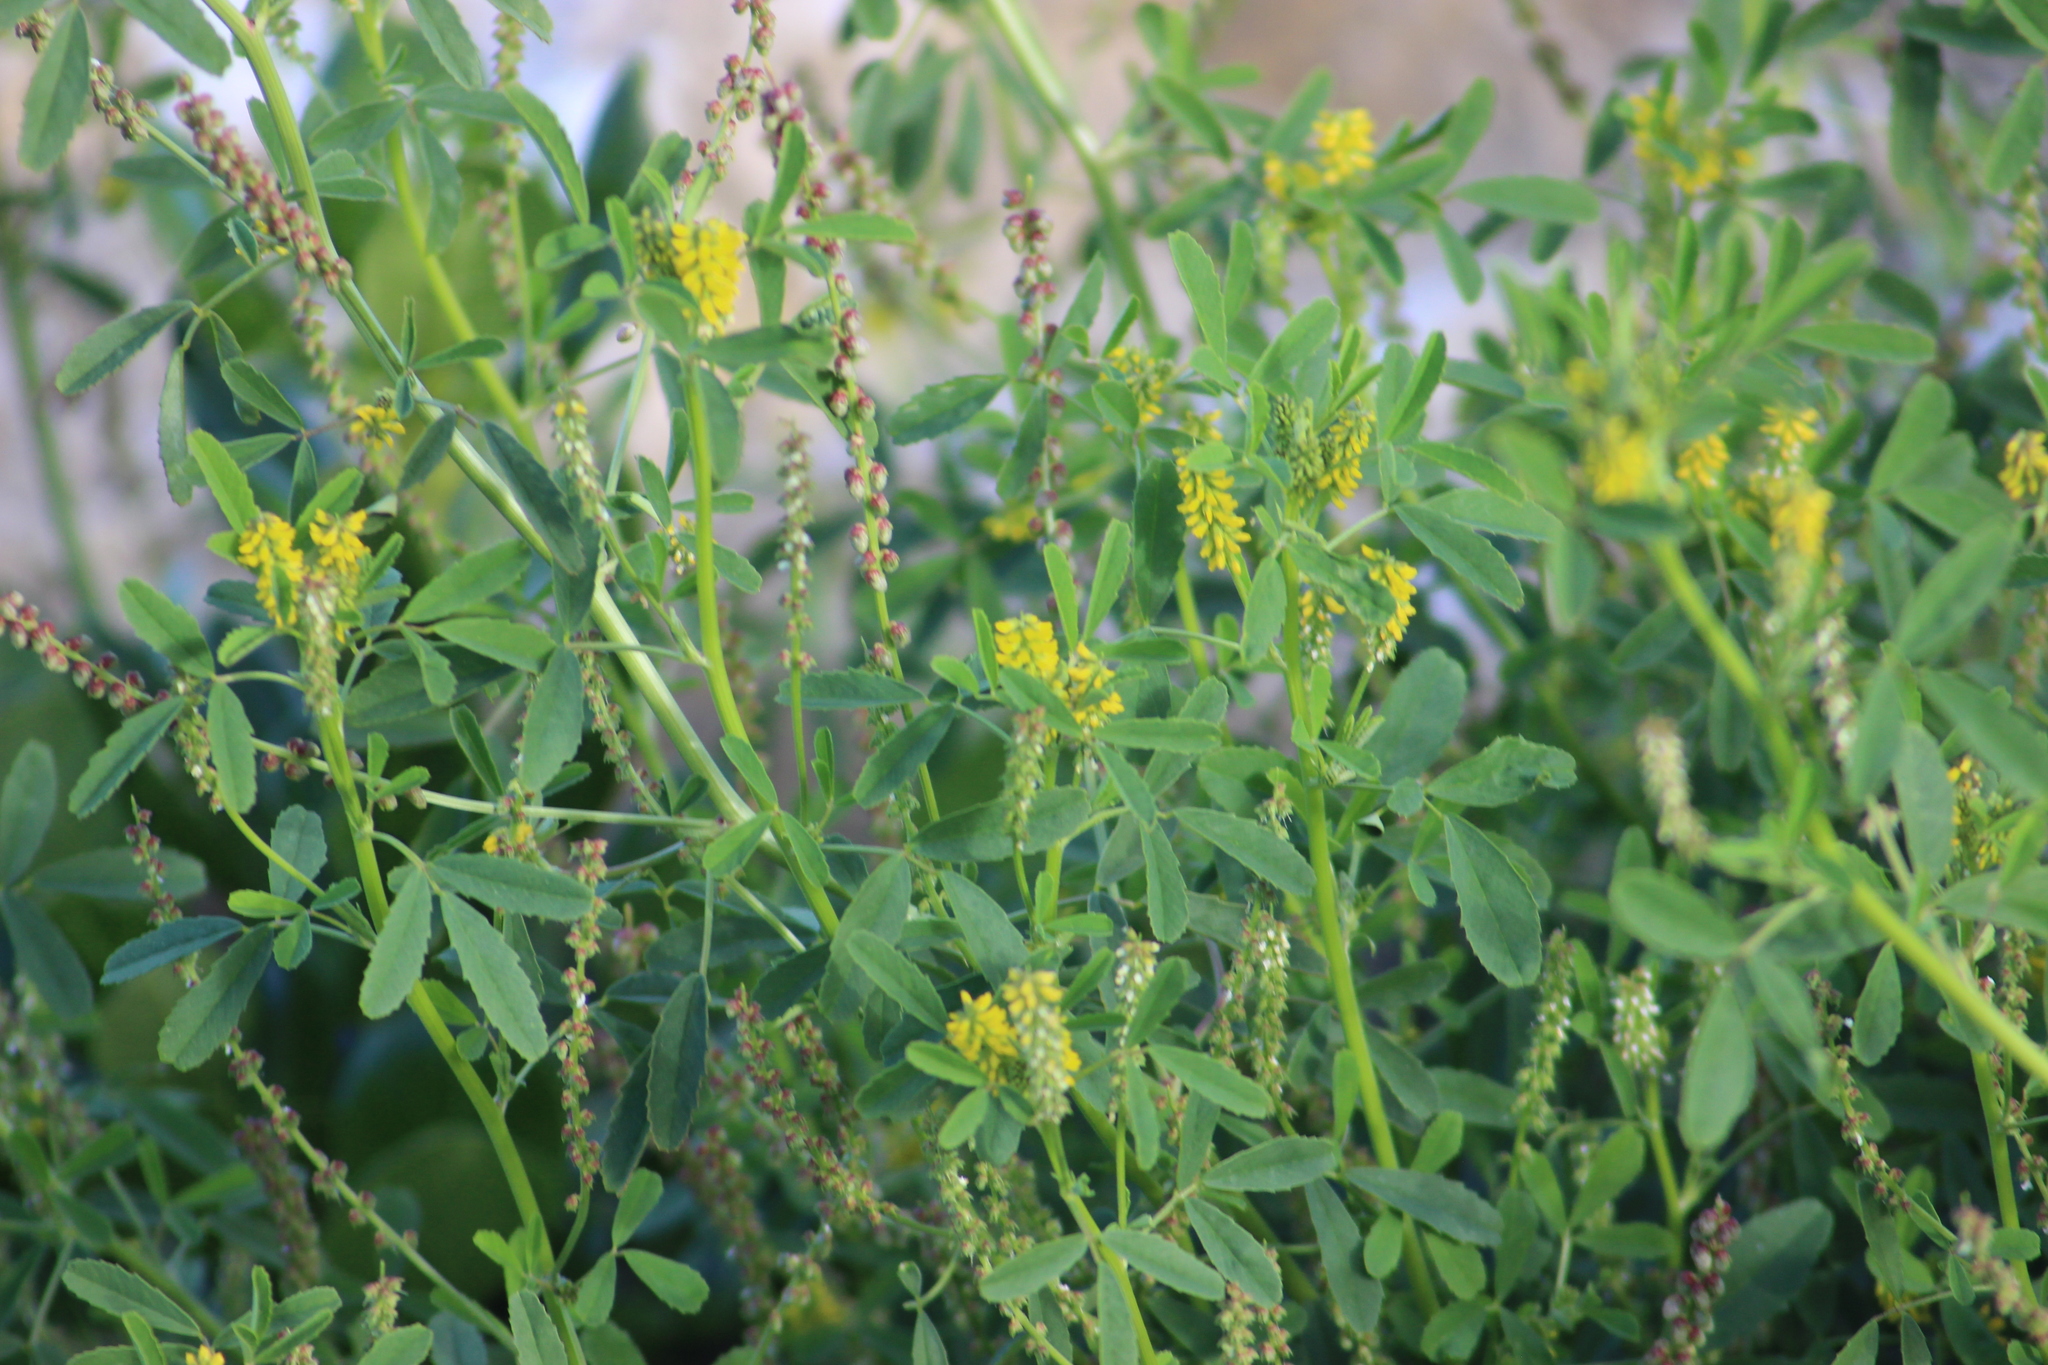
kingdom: Plantae
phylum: Tracheophyta
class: Magnoliopsida
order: Fabales
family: Fabaceae
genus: Melilotus
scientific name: Melilotus indicus
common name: Small melilot
